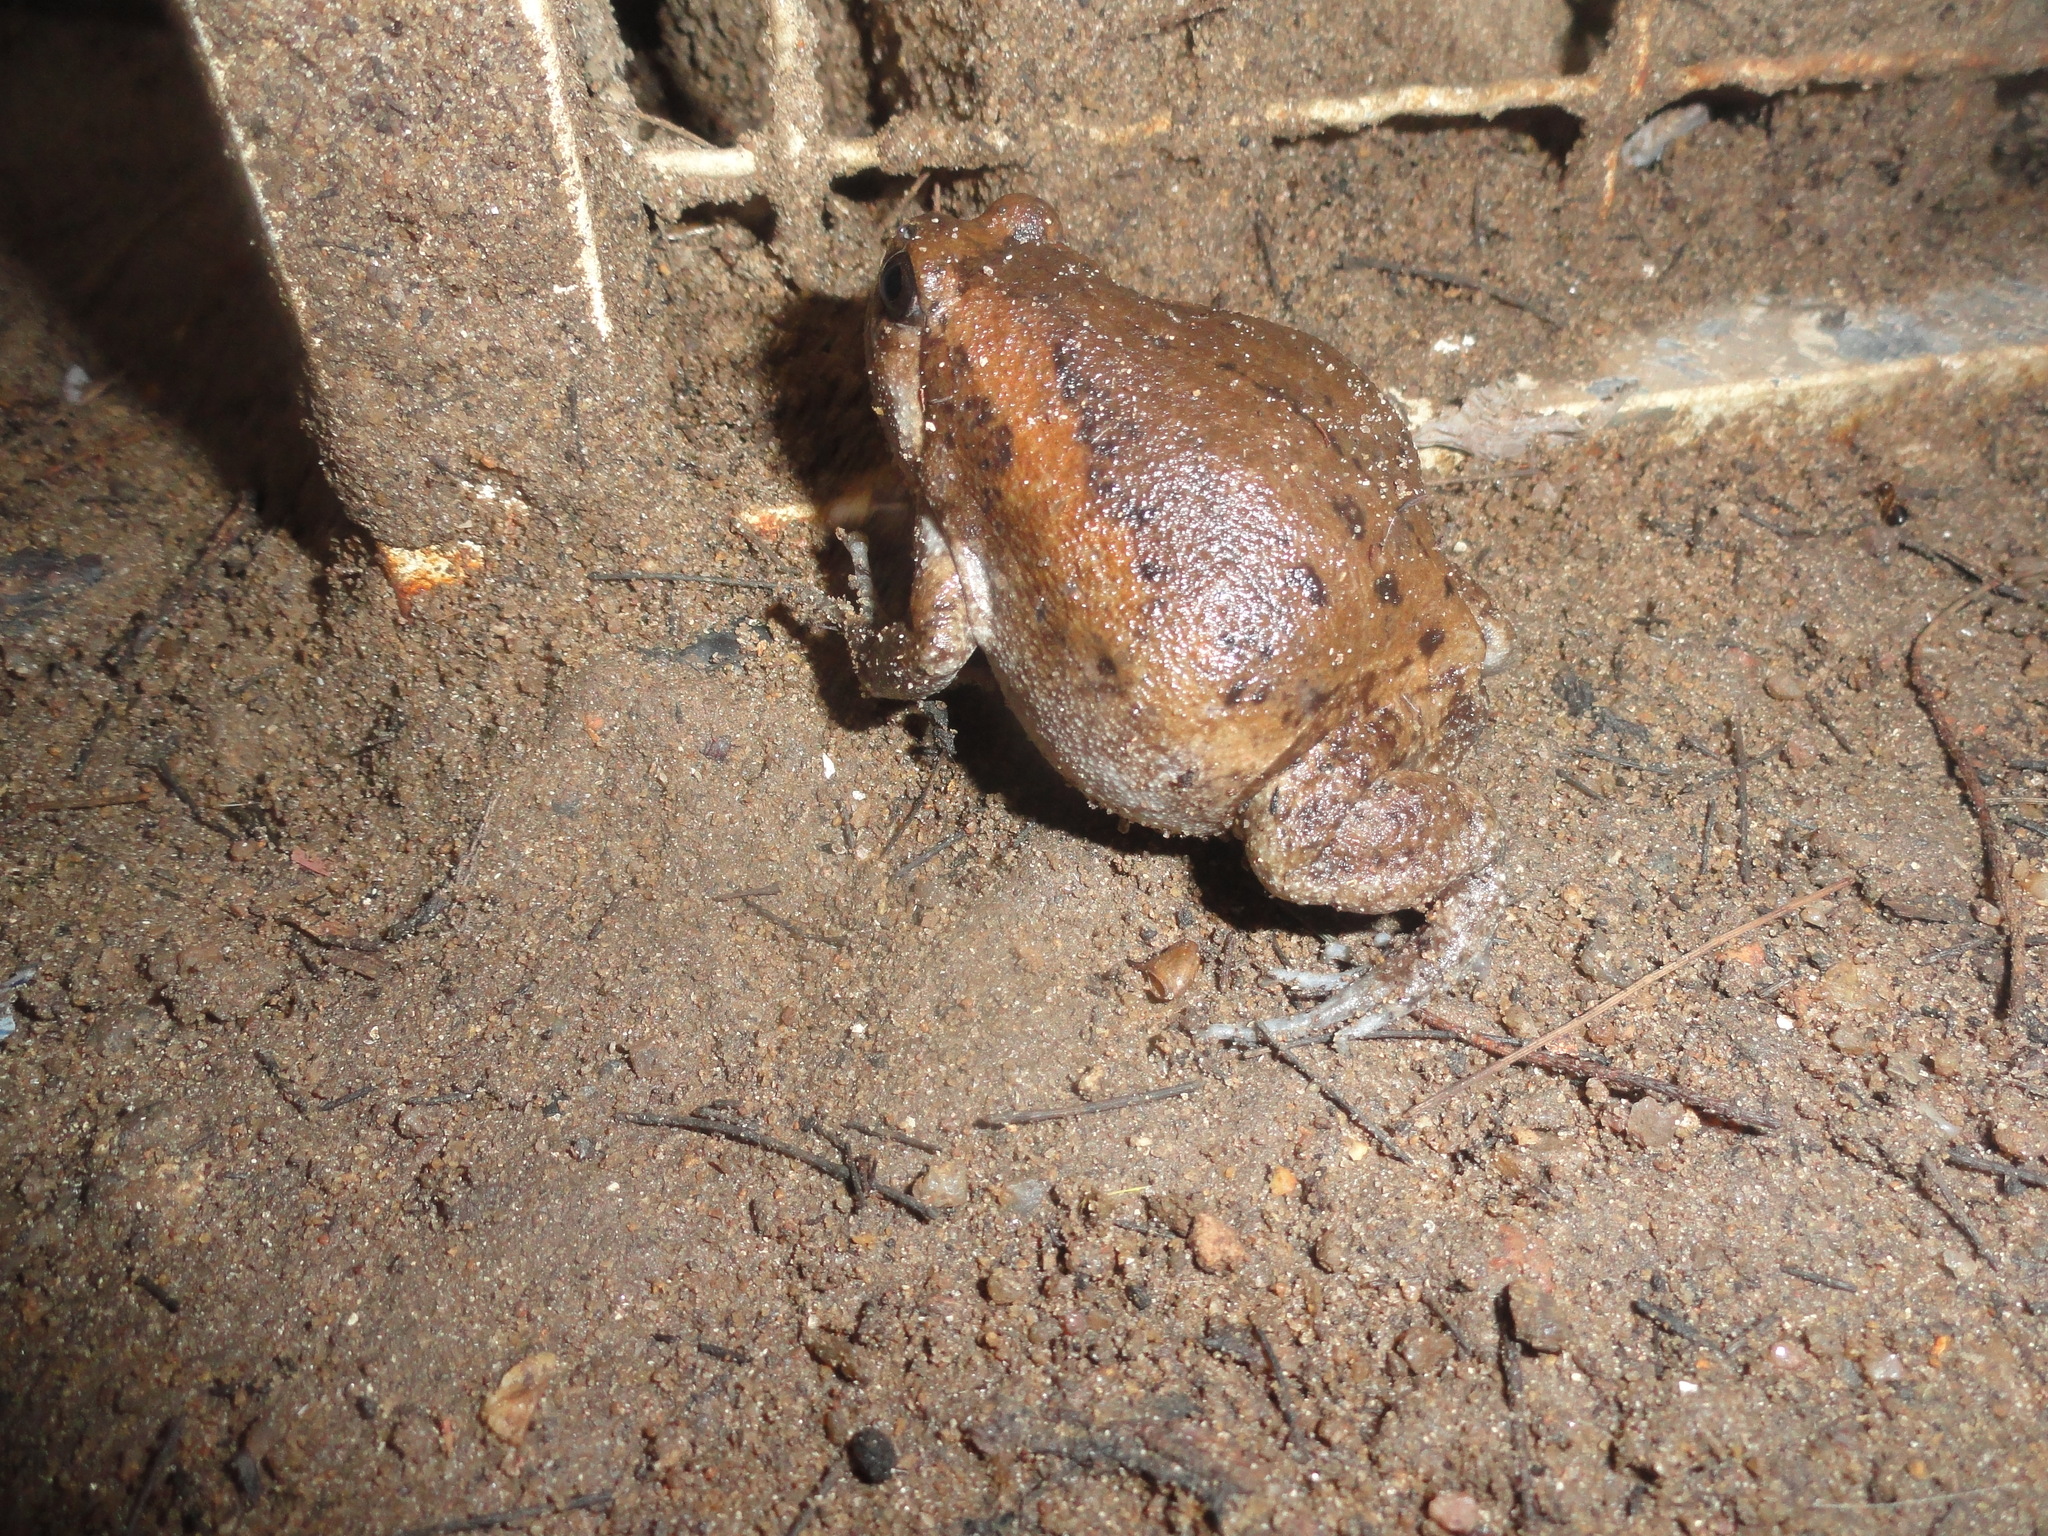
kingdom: Animalia
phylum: Chordata
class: Amphibia
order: Anura
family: Microhylidae
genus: Kaloula
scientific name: Kaloula pulchra
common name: Common,banded bullfrog
